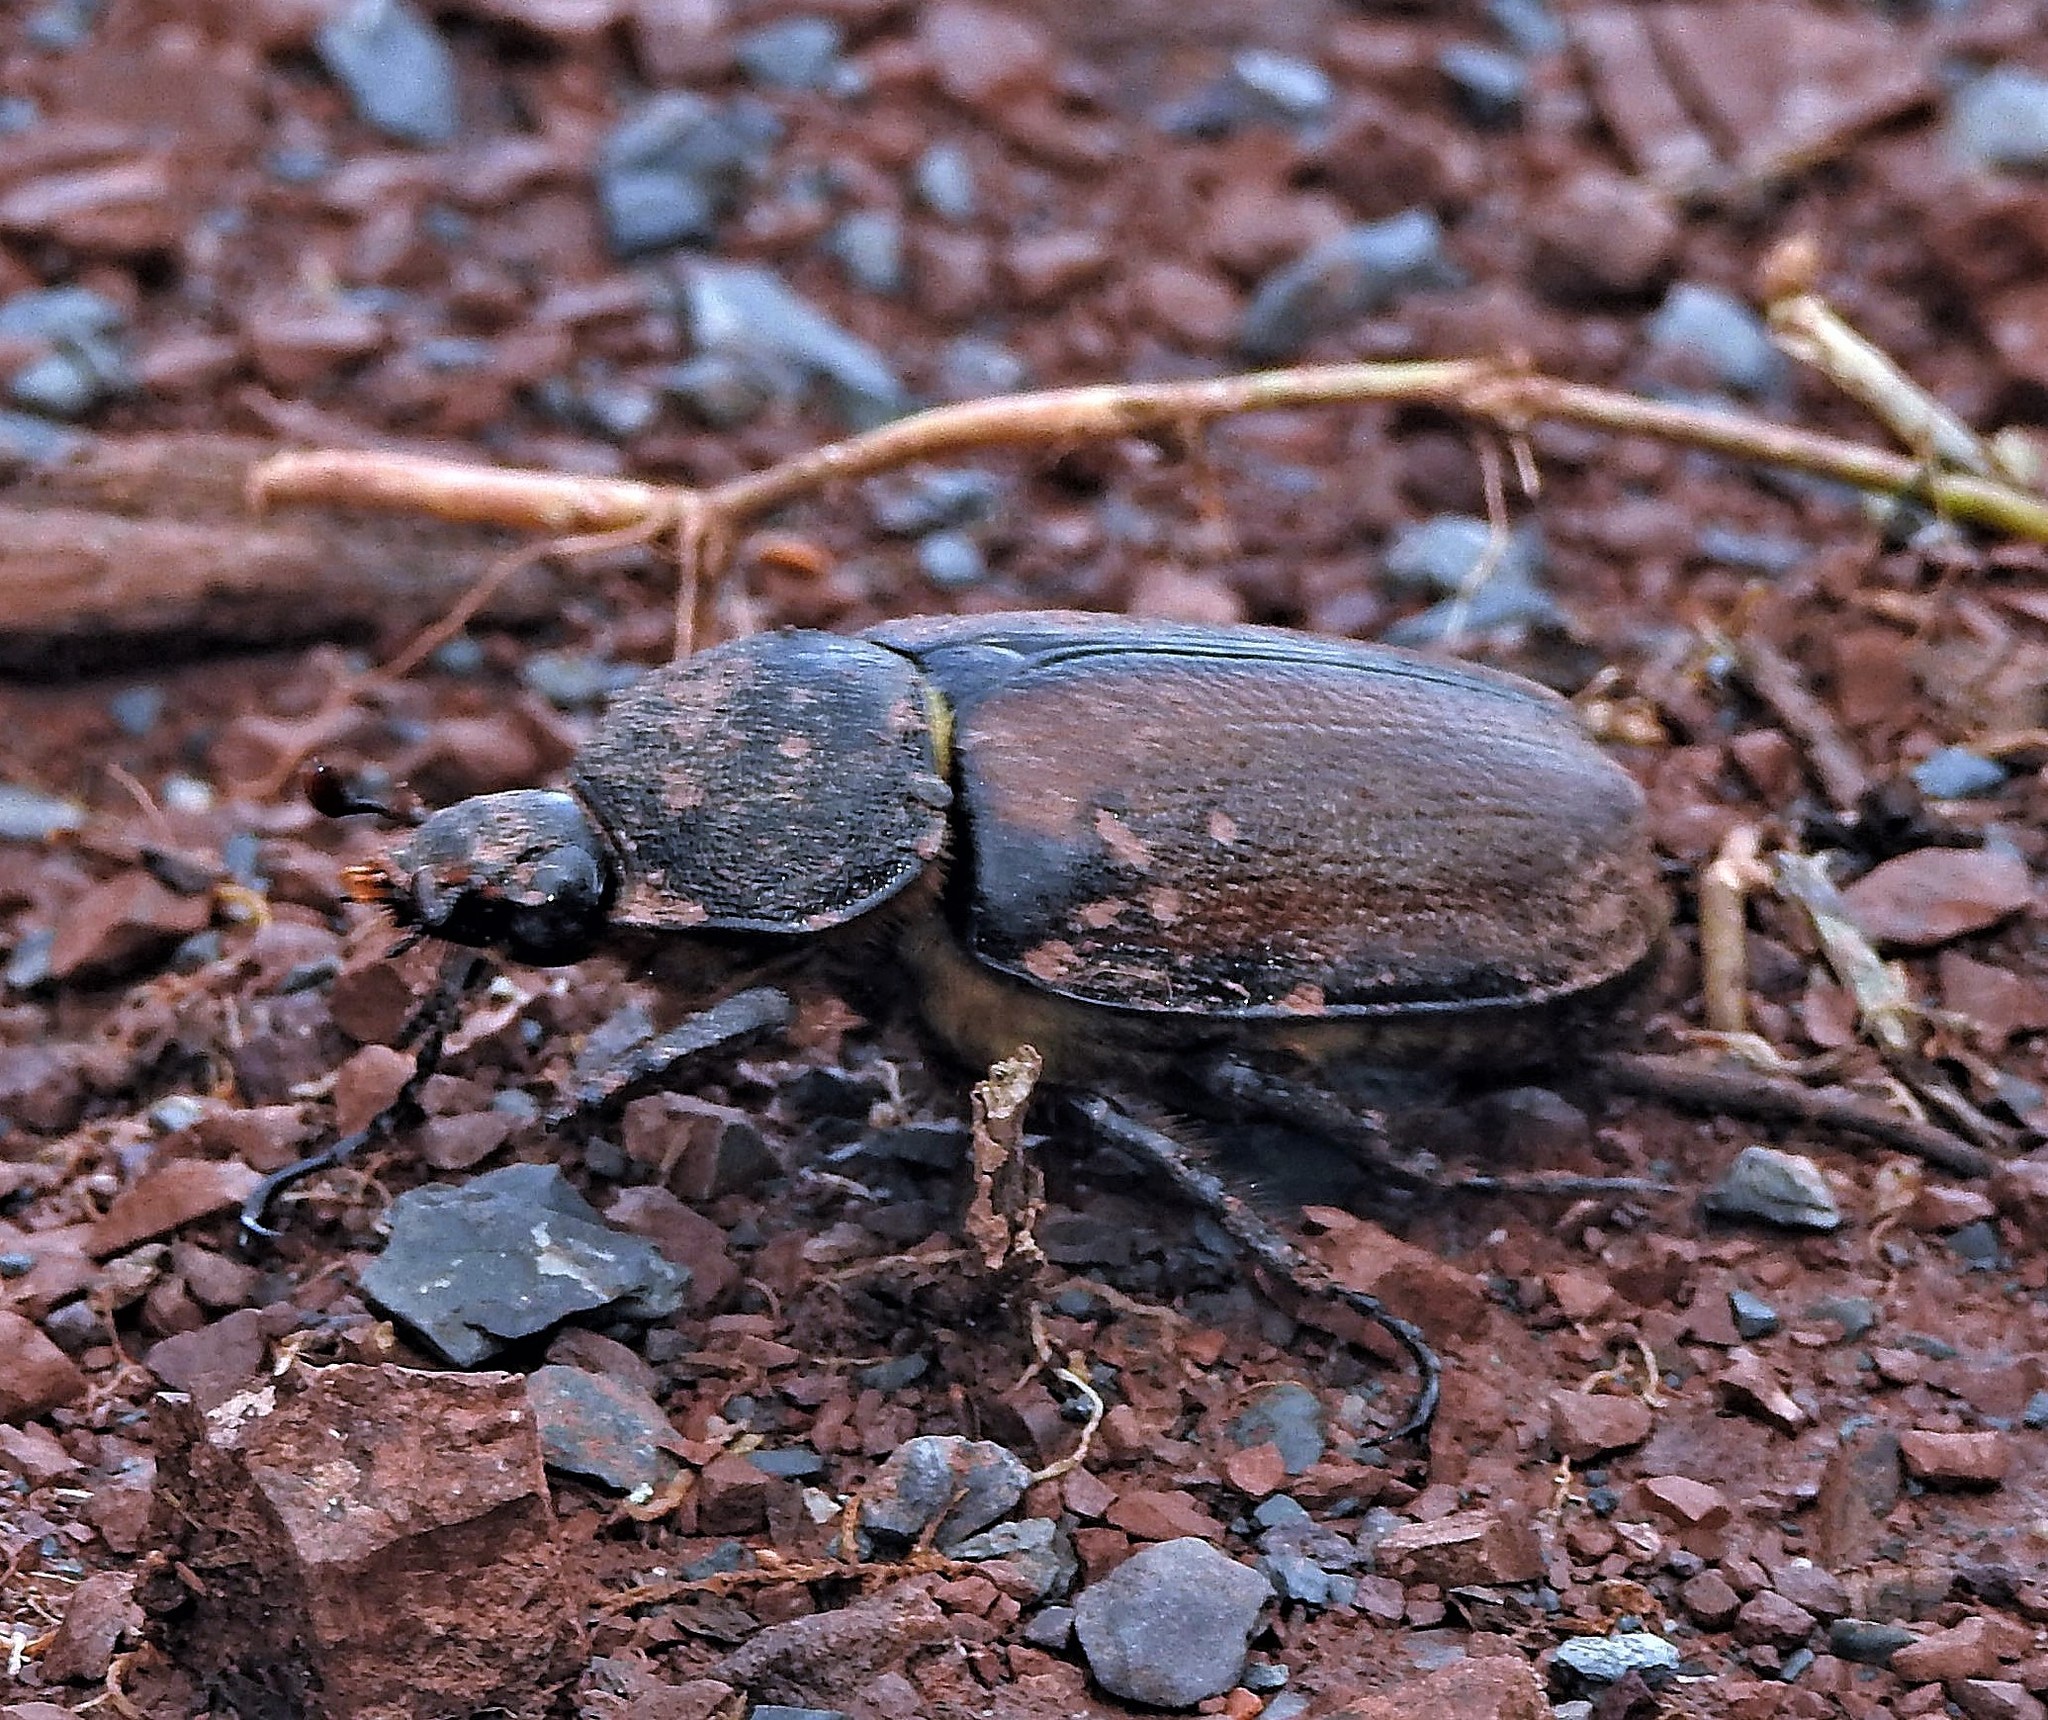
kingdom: Animalia
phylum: Arthropoda
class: Insecta
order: Coleoptera
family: Scarabaeidae
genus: Golofa
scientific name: Golofa pelagon
